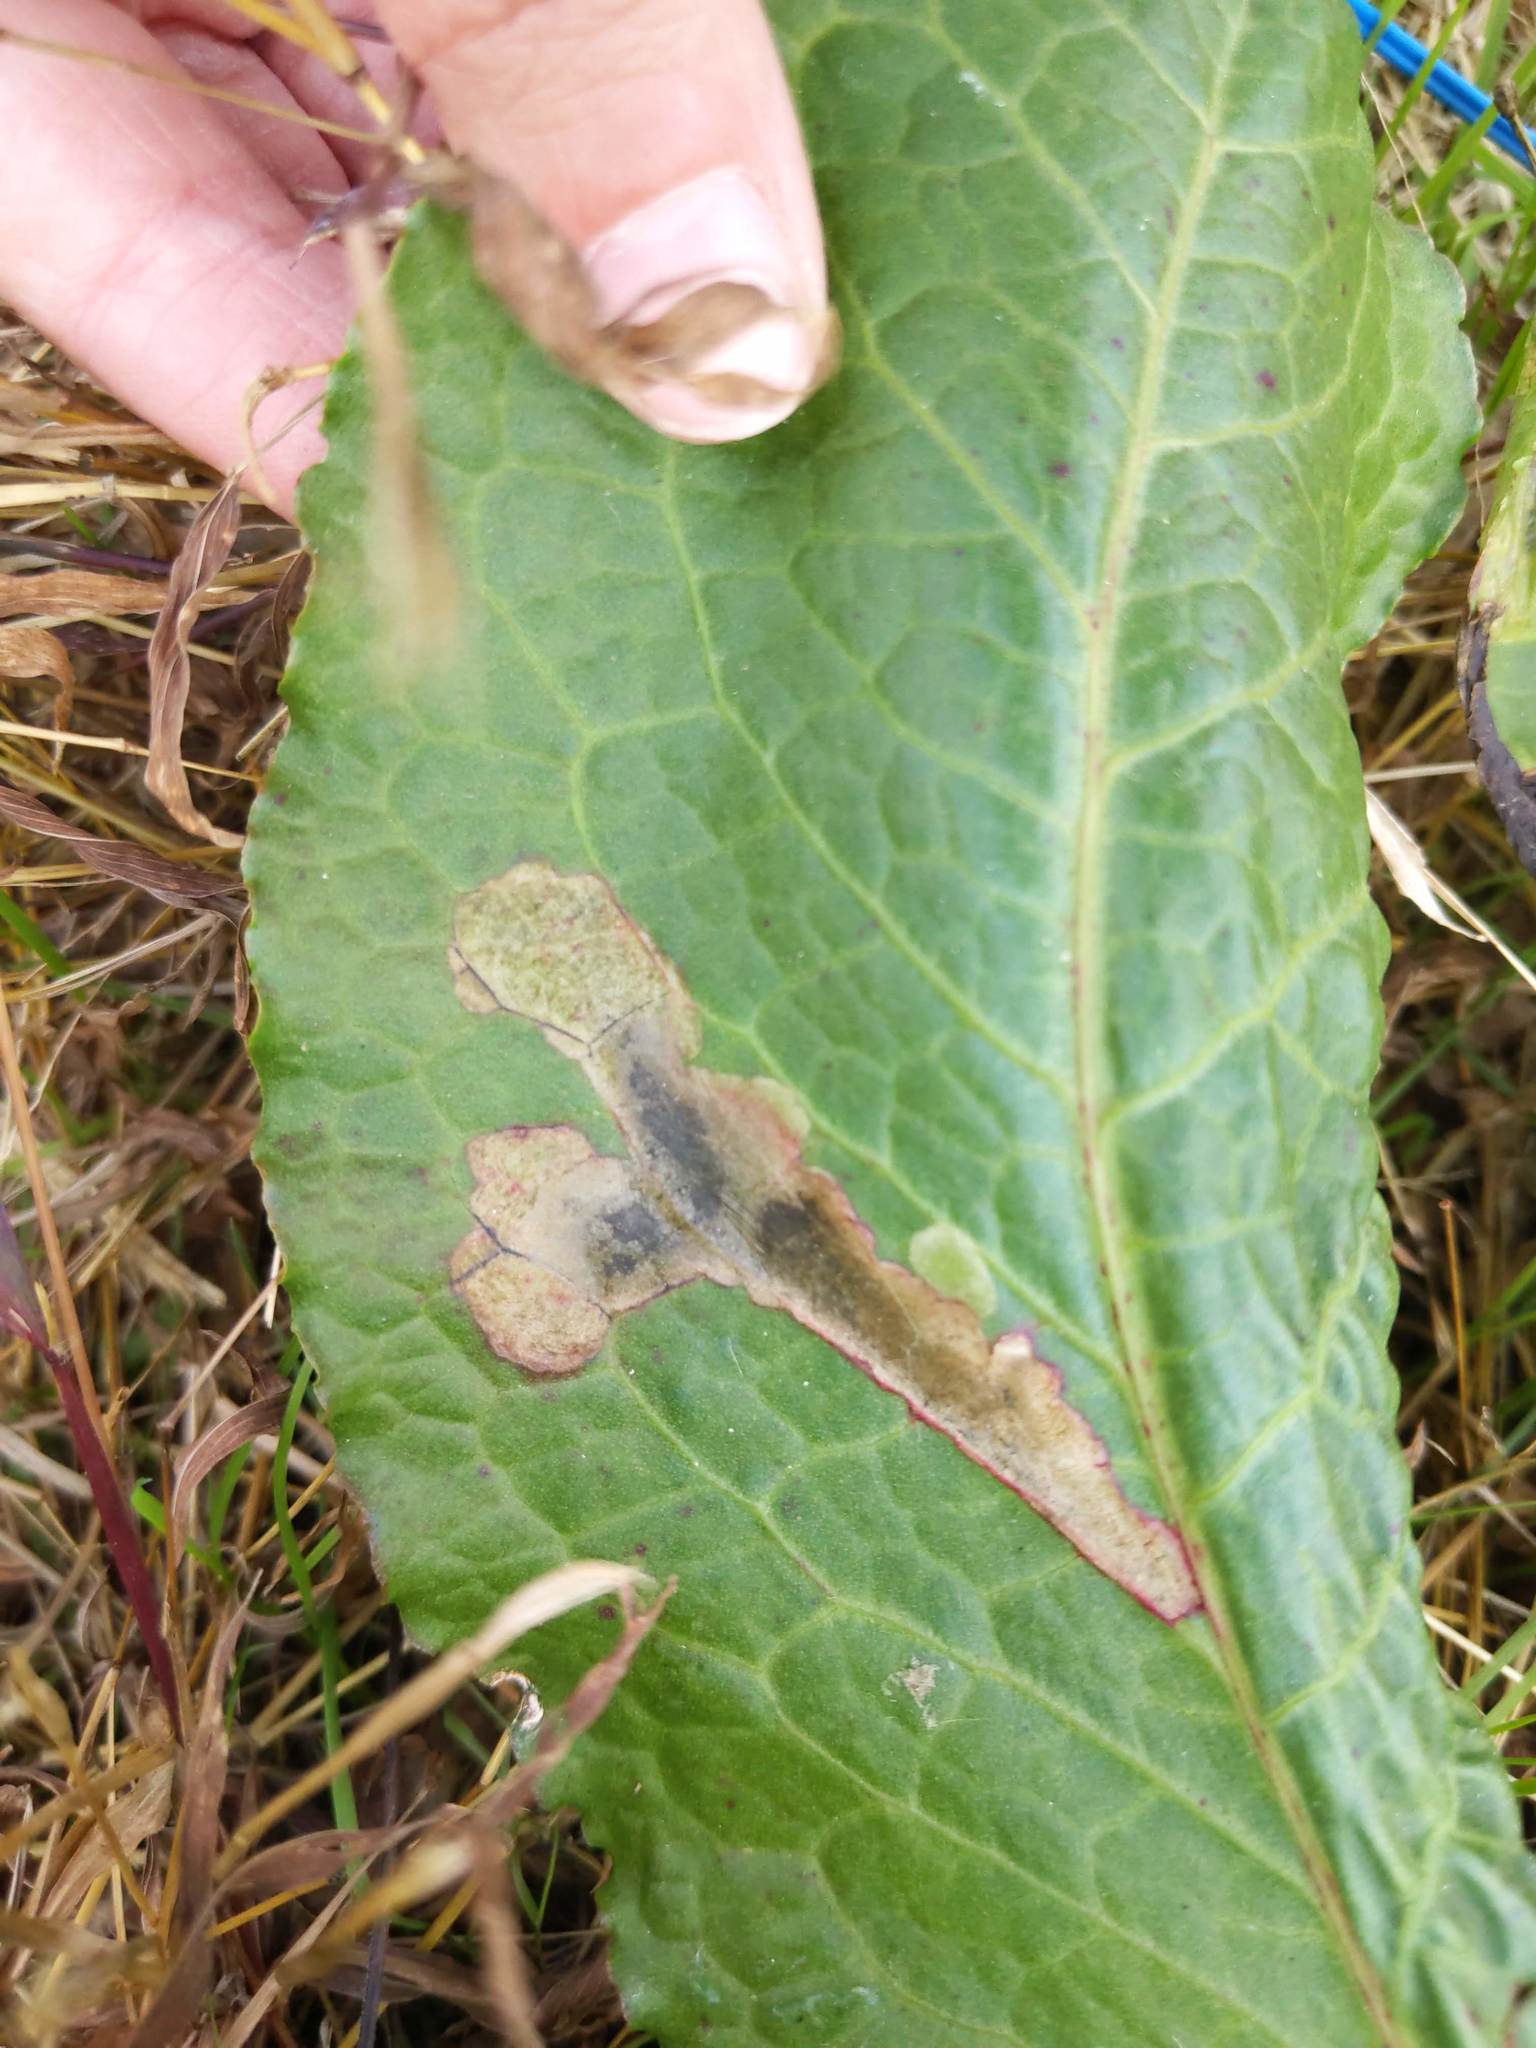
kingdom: Animalia
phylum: Arthropoda
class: Insecta
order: Diptera
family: Anthomyiidae
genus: Pegomya
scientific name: Pegomya bicolor
